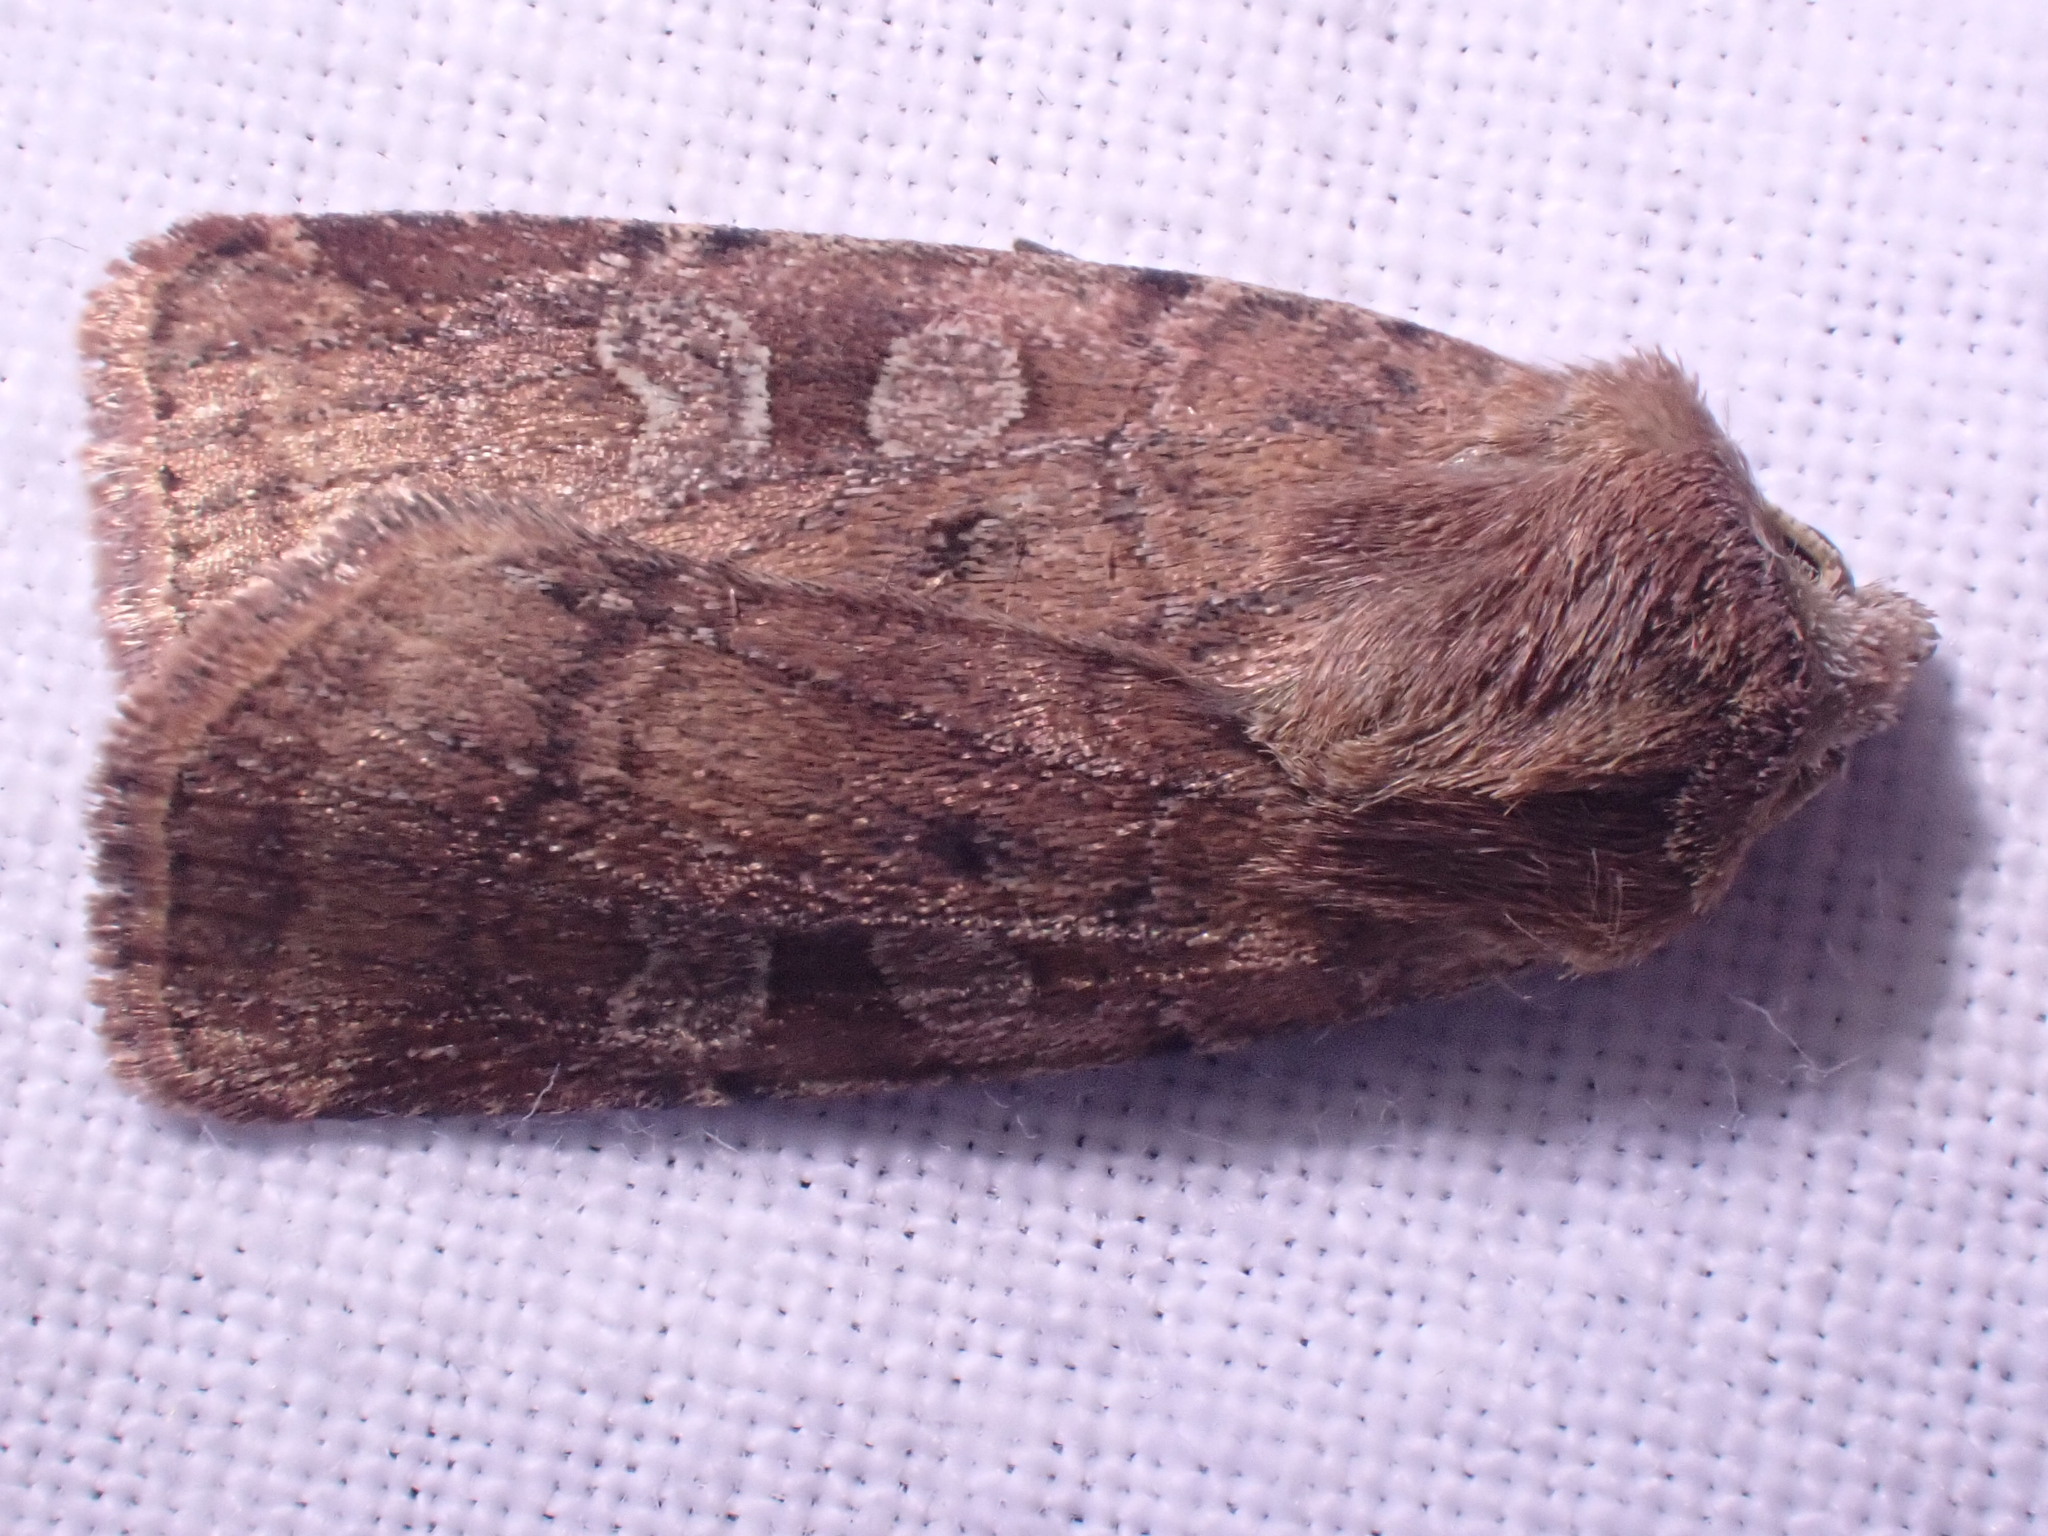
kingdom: Animalia
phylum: Arthropoda
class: Insecta
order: Lepidoptera
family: Noctuidae
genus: Diarsia
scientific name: Diarsia rubi
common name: Small square-spot
